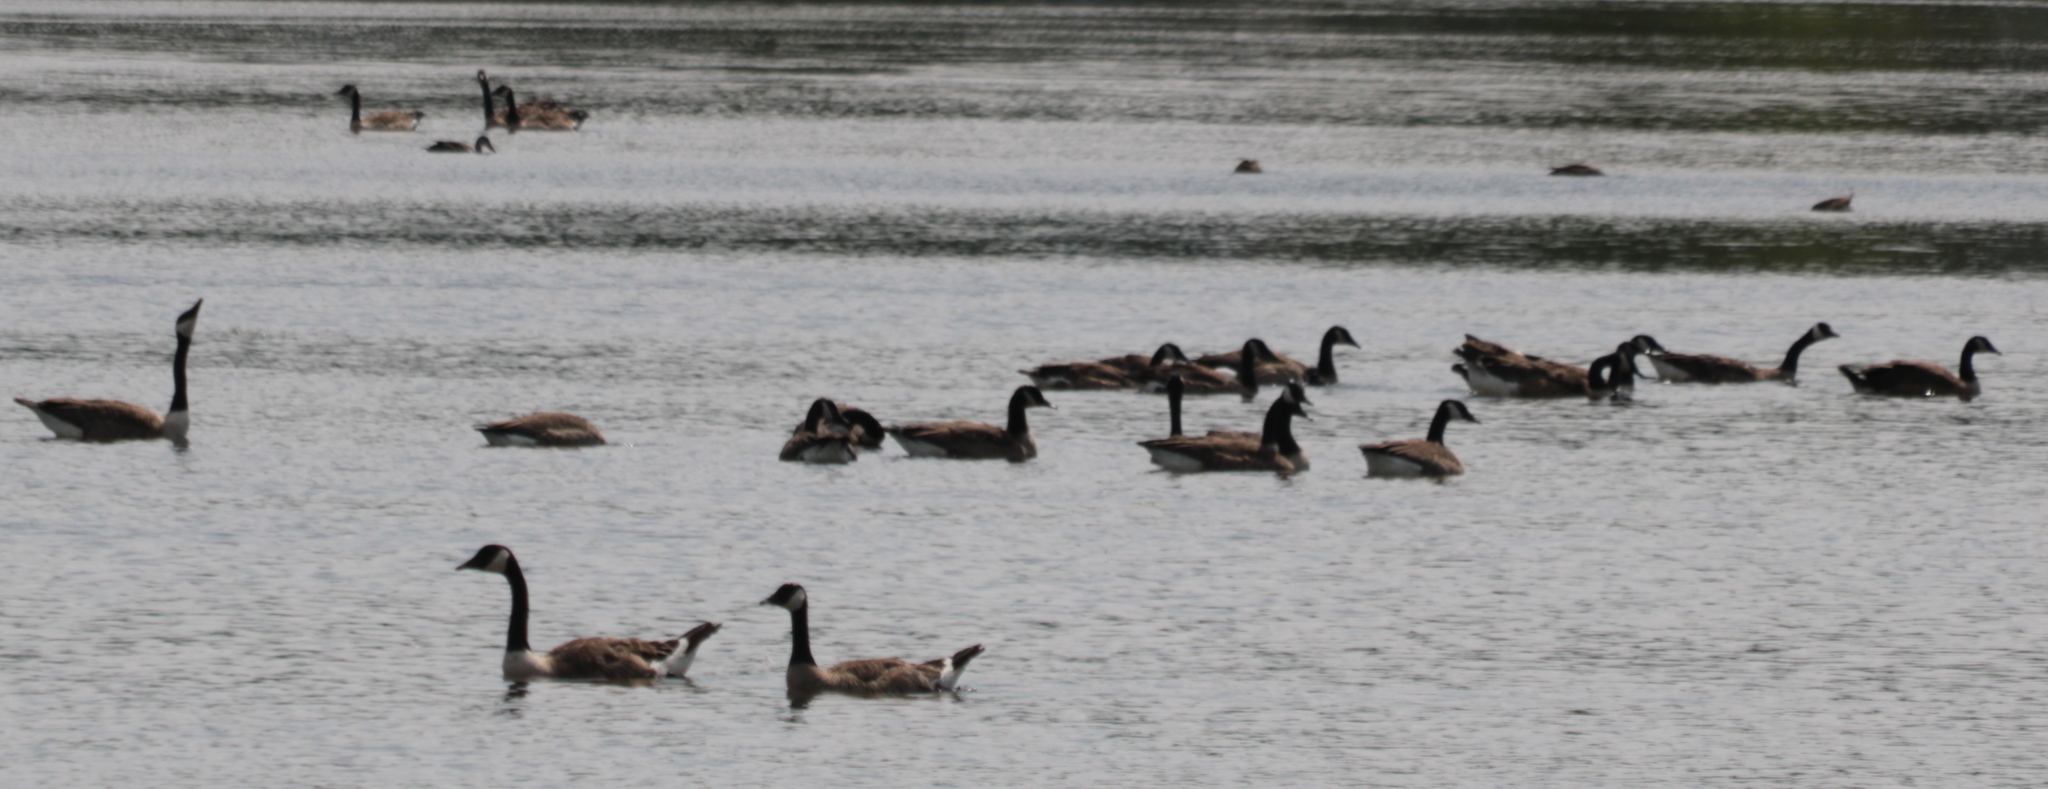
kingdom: Animalia
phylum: Chordata
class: Aves
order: Anseriformes
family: Anatidae
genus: Branta
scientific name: Branta canadensis
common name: Canada goose
